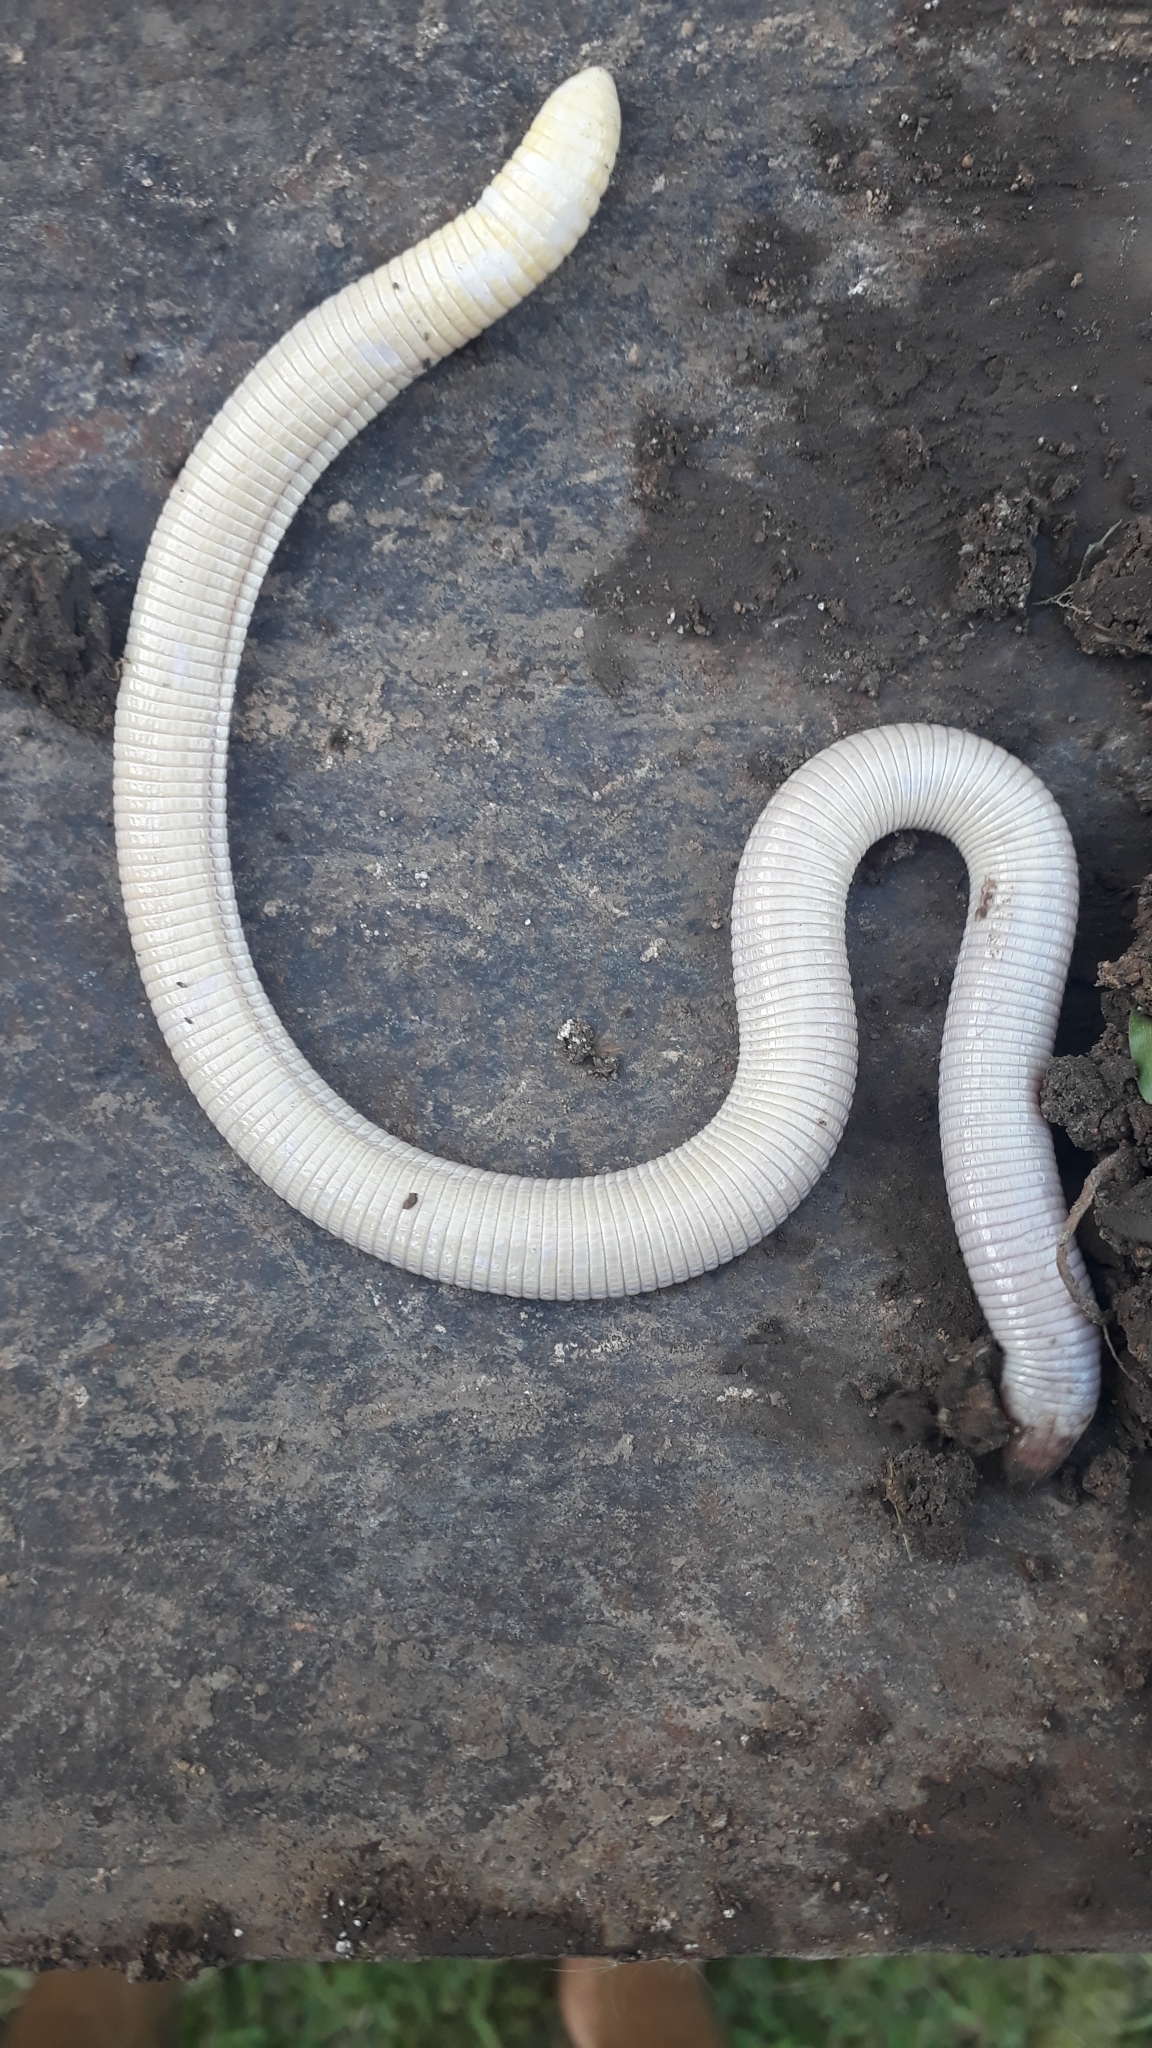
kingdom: Animalia
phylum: Chordata
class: Squamata
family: Amphisbaenidae
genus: Amphisbaena
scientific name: Amphisbaena darwinii
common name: Darwin's ringed worm lizard
